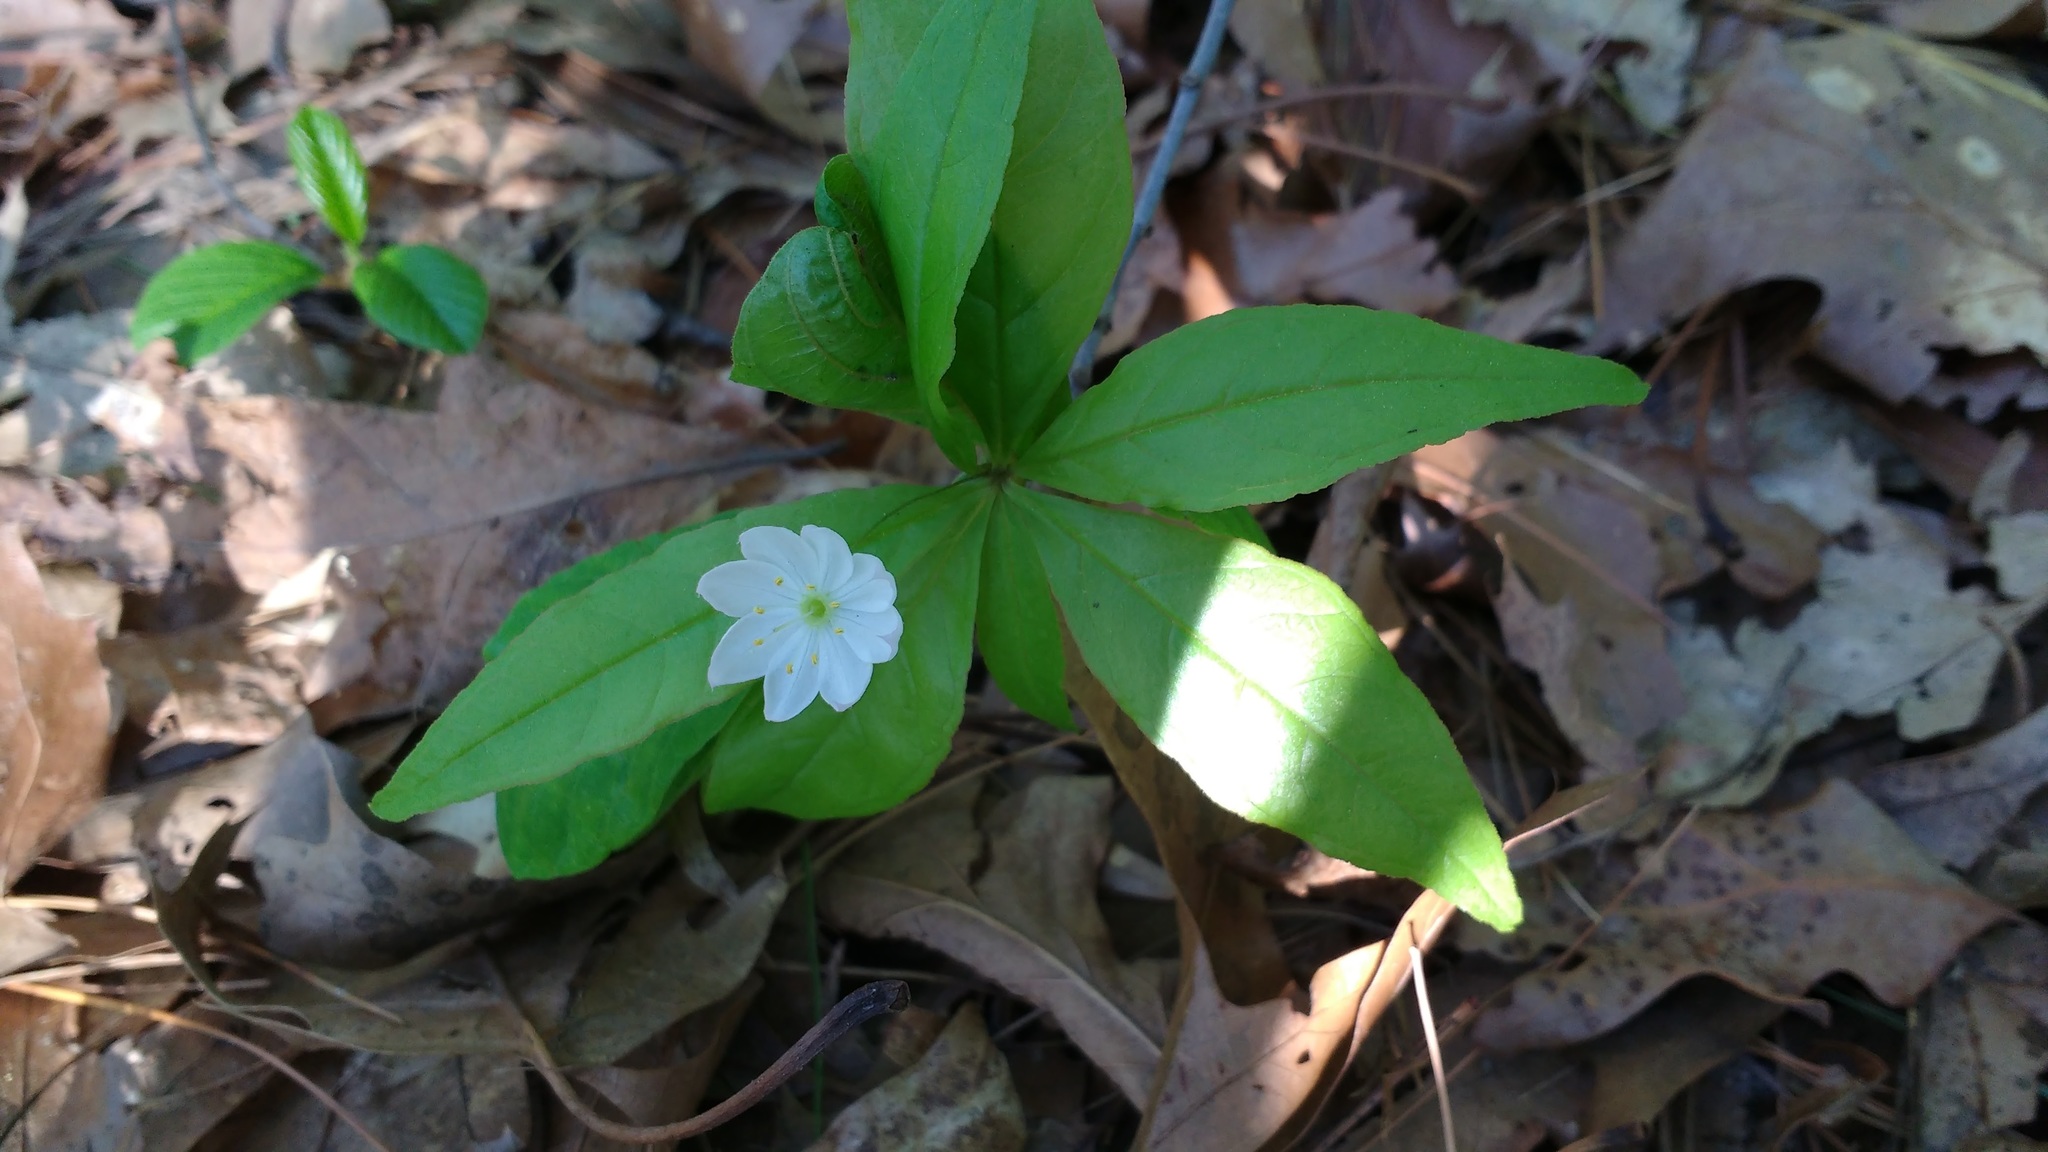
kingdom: Plantae
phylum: Tracheophyta
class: Magnoliopsida
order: Ericales
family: Primulaceae
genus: Lysimachia
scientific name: Lysimachia borealis
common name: American starflower
